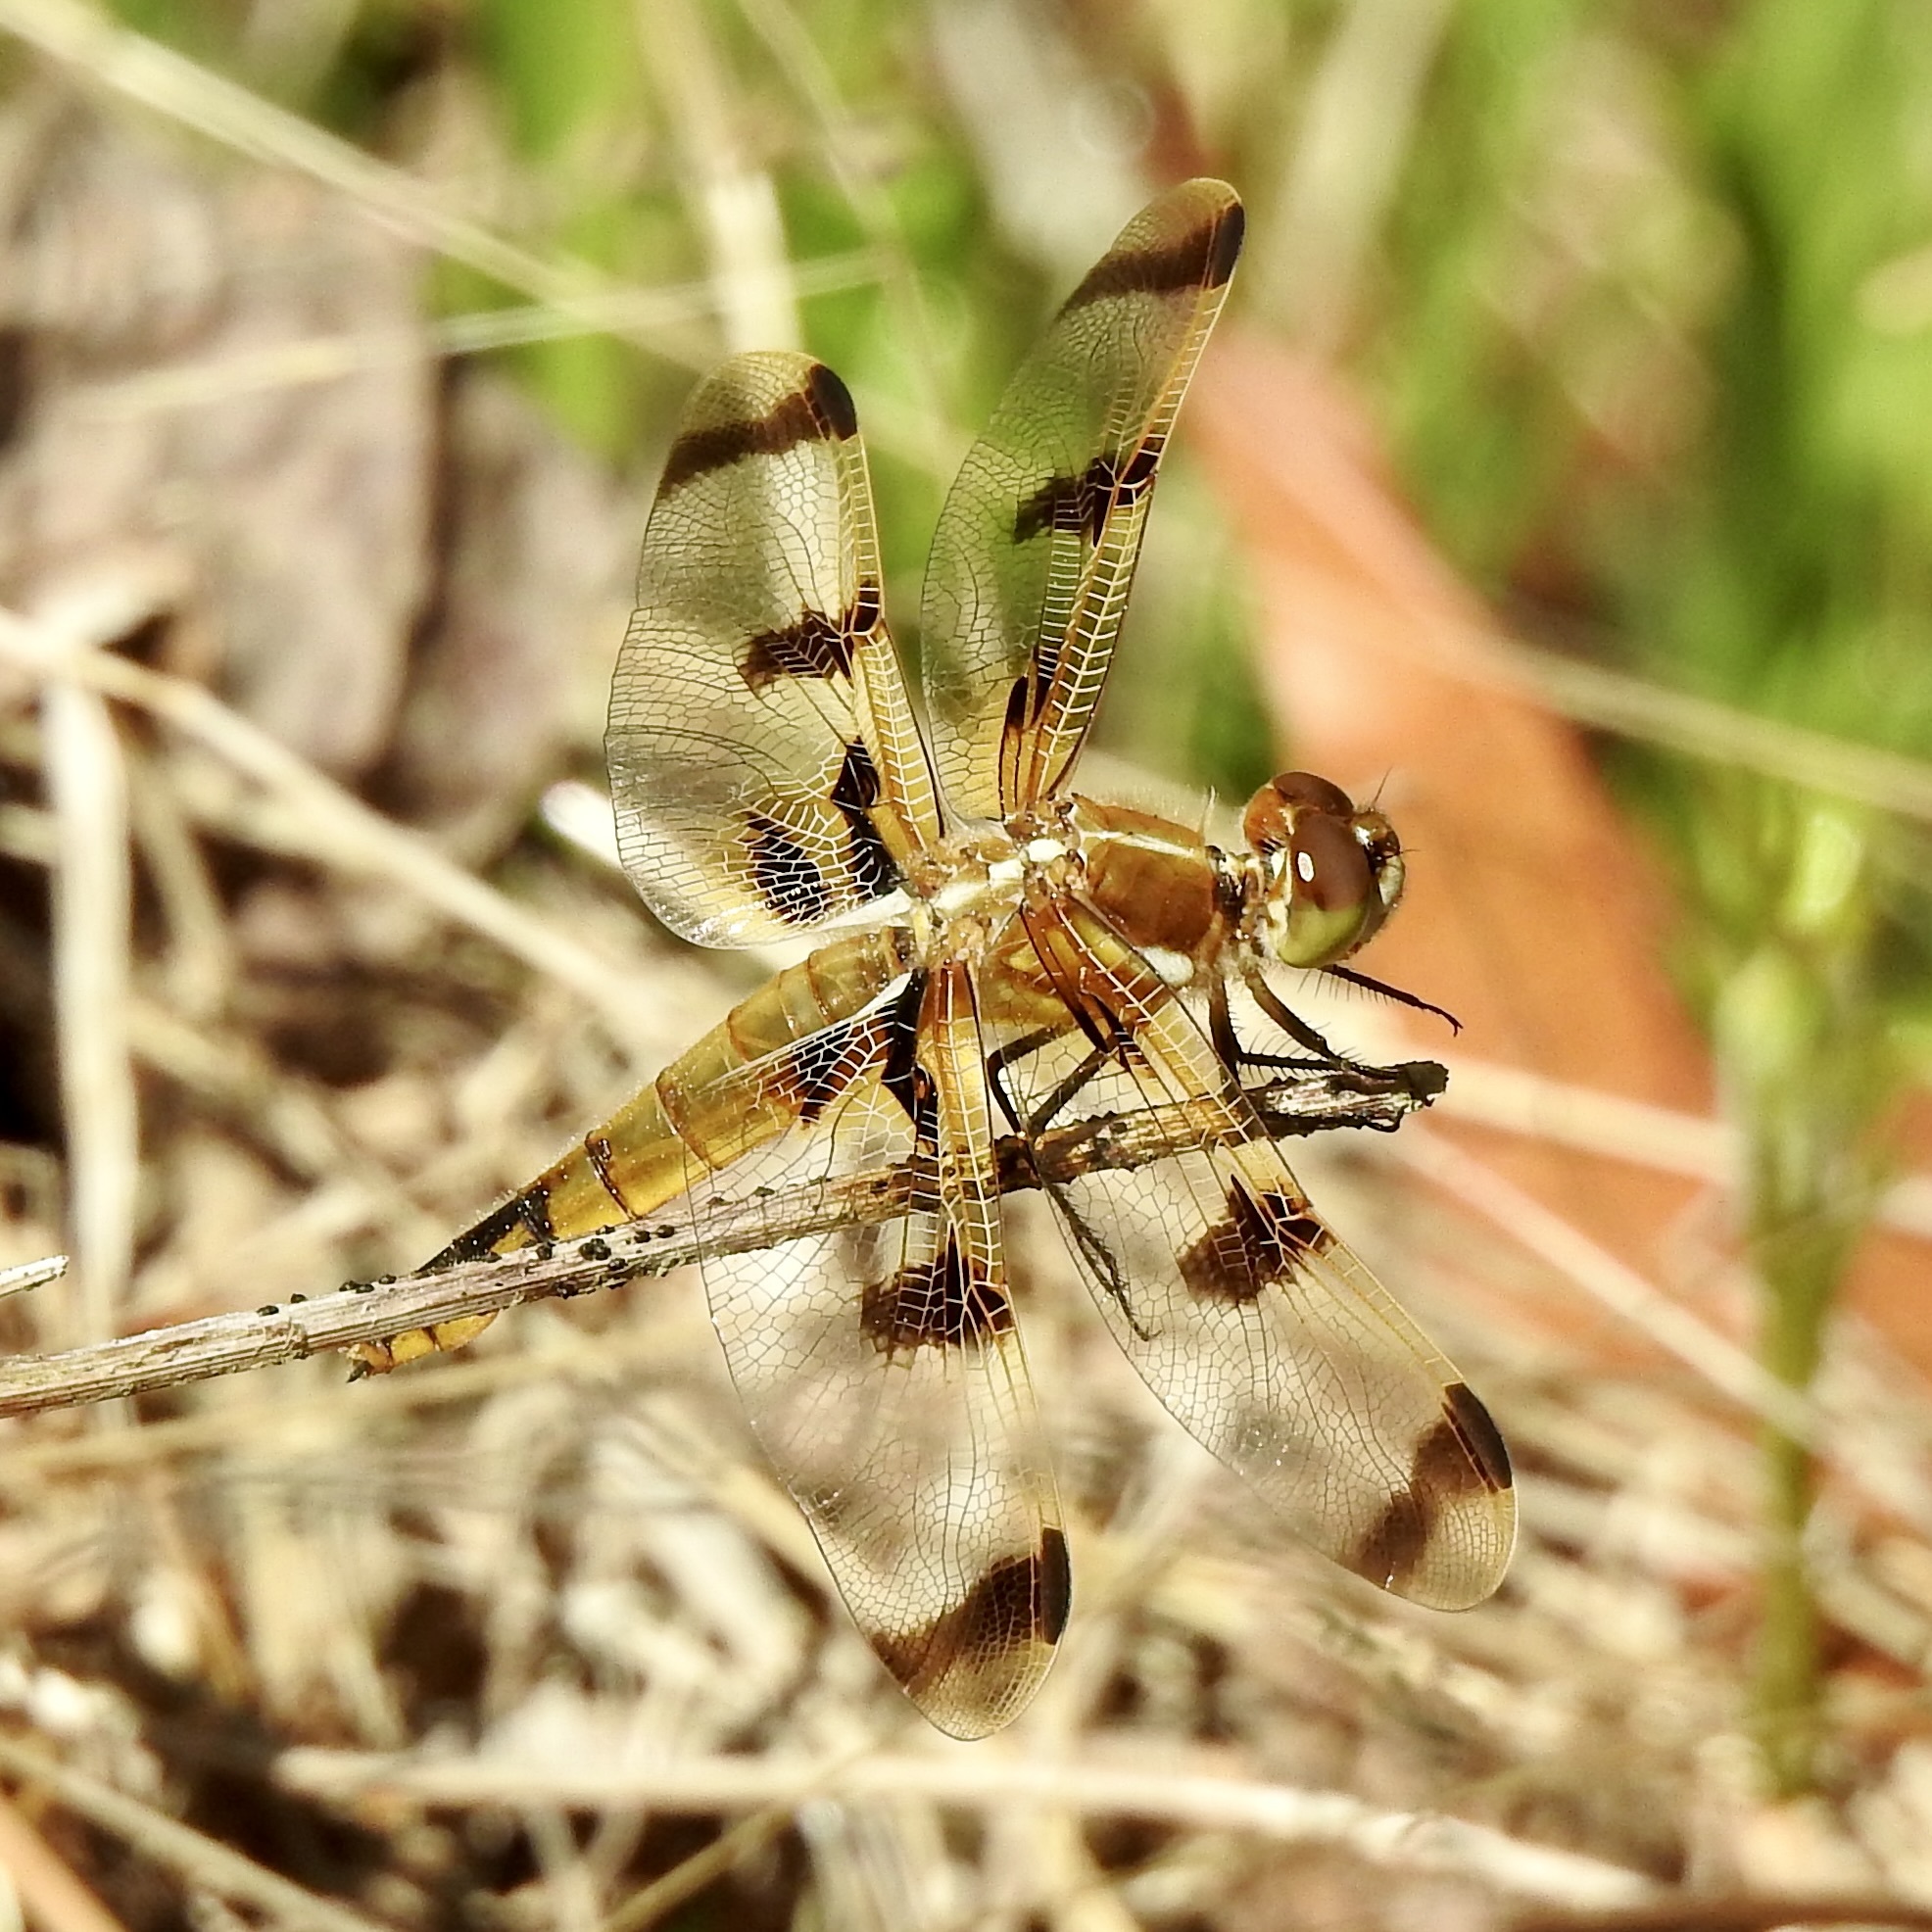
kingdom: Animalia
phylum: Arthropoda
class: Insecta
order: Odonata
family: Libellulidae
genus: Libellula
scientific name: Libellula semifasciata
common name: Painted skimmer
